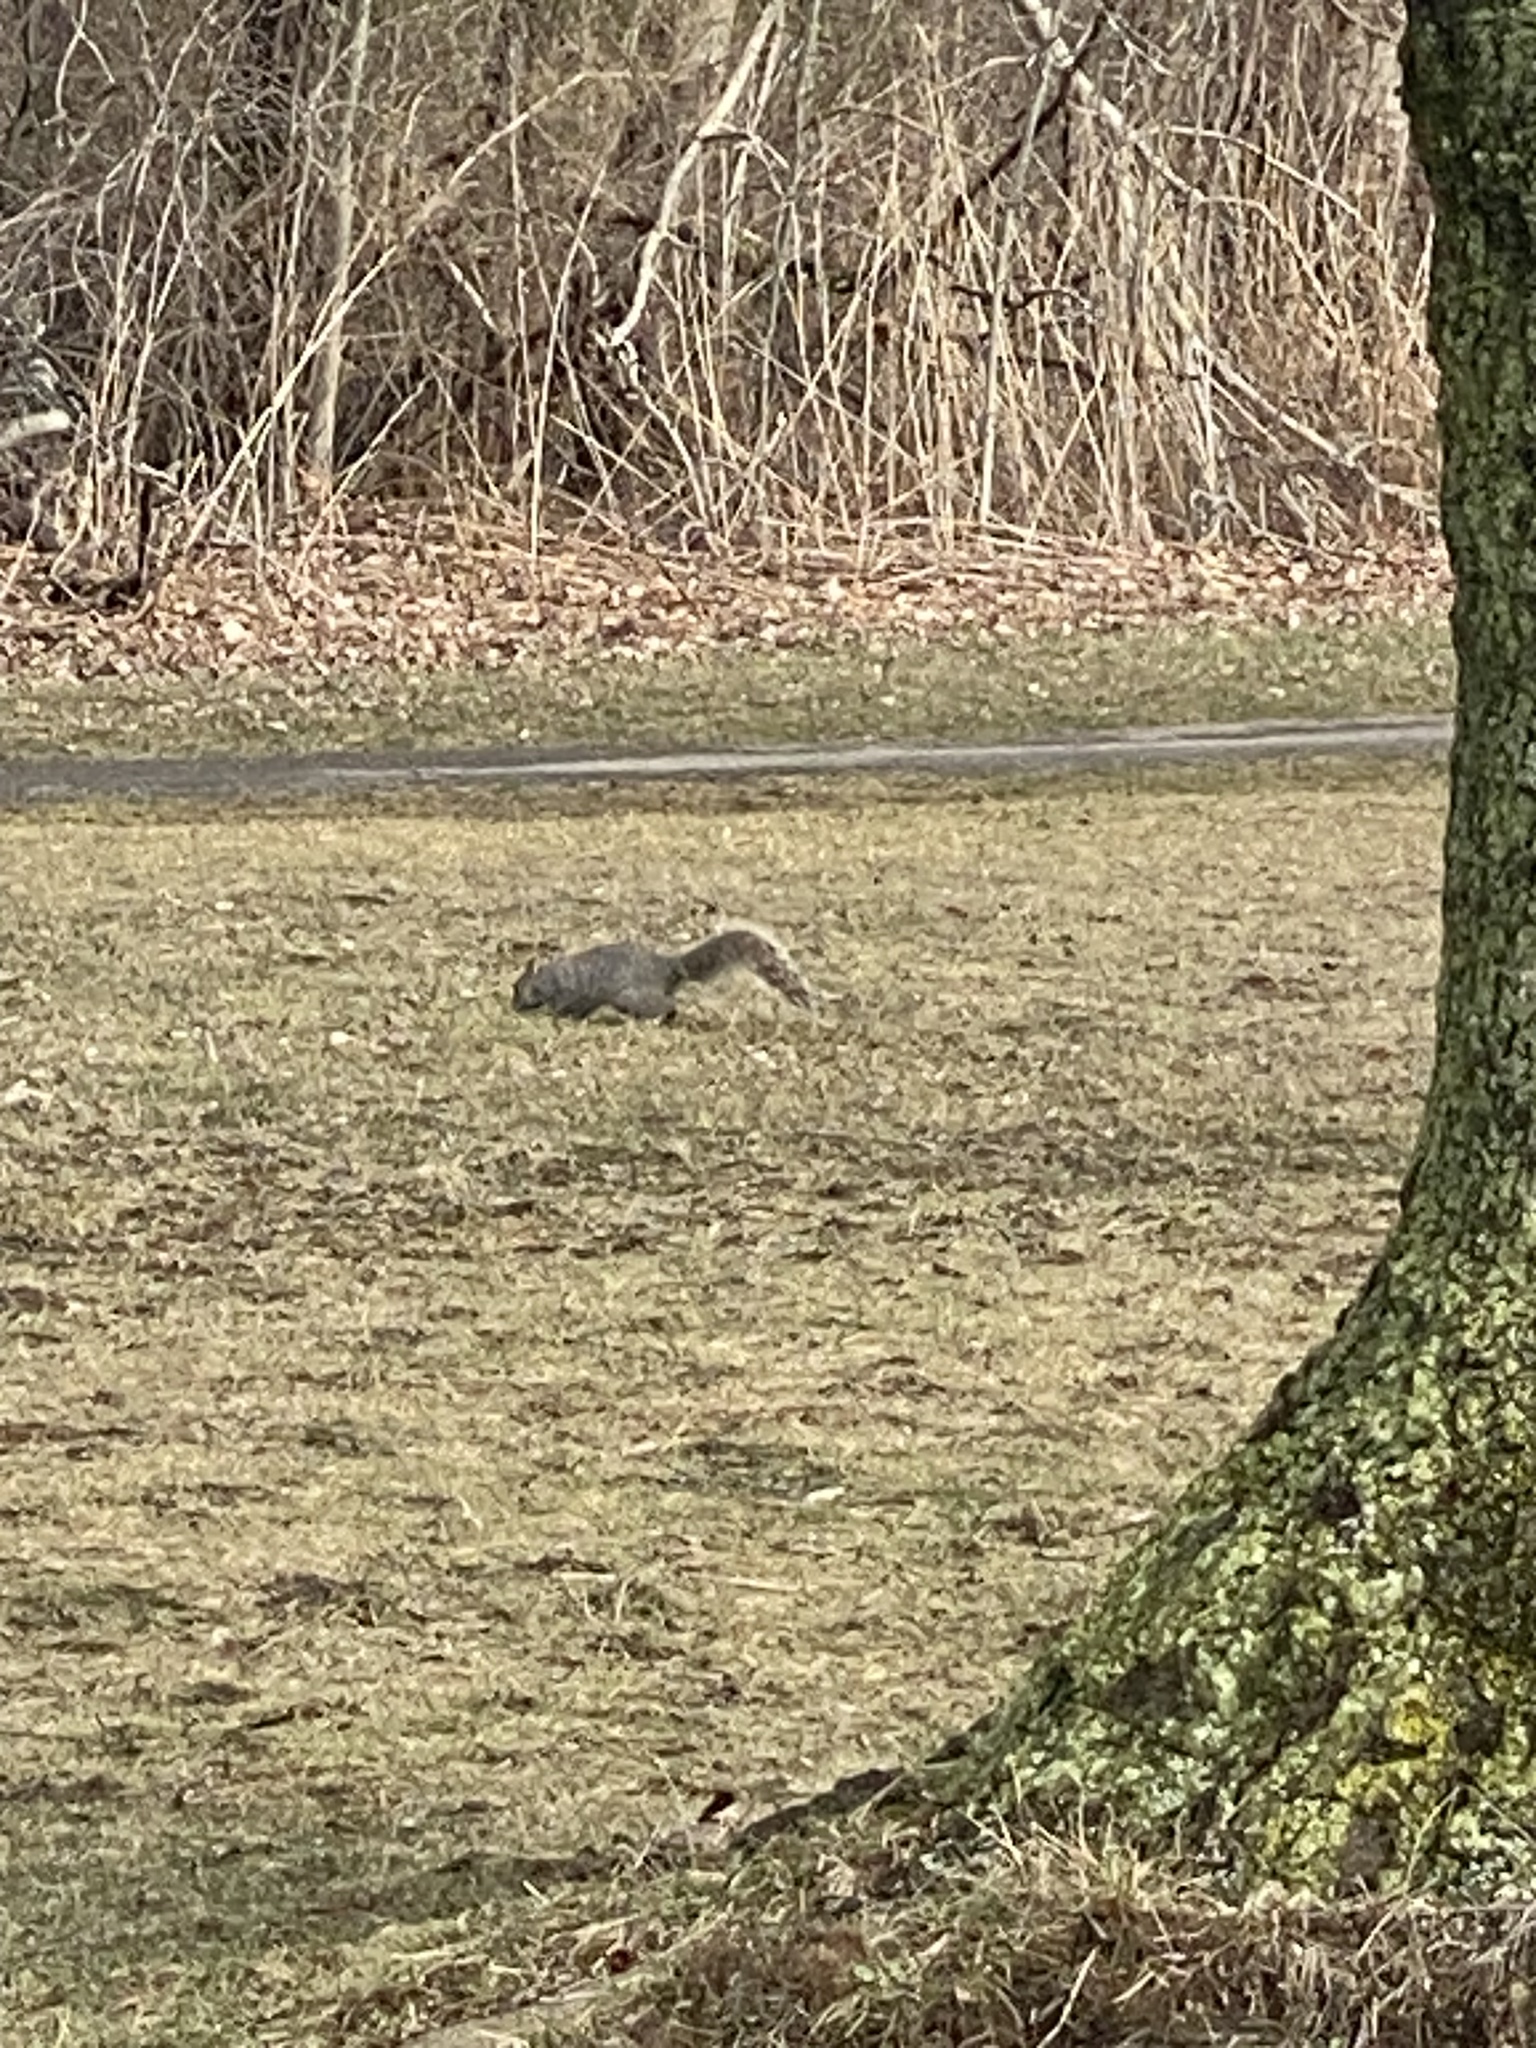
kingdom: Animalia
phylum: Chordata
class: Mammalia
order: Rodentia
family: Sciuridae
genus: Sciurus
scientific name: Sciurus carolinensis
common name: Eastern gray squirrel
